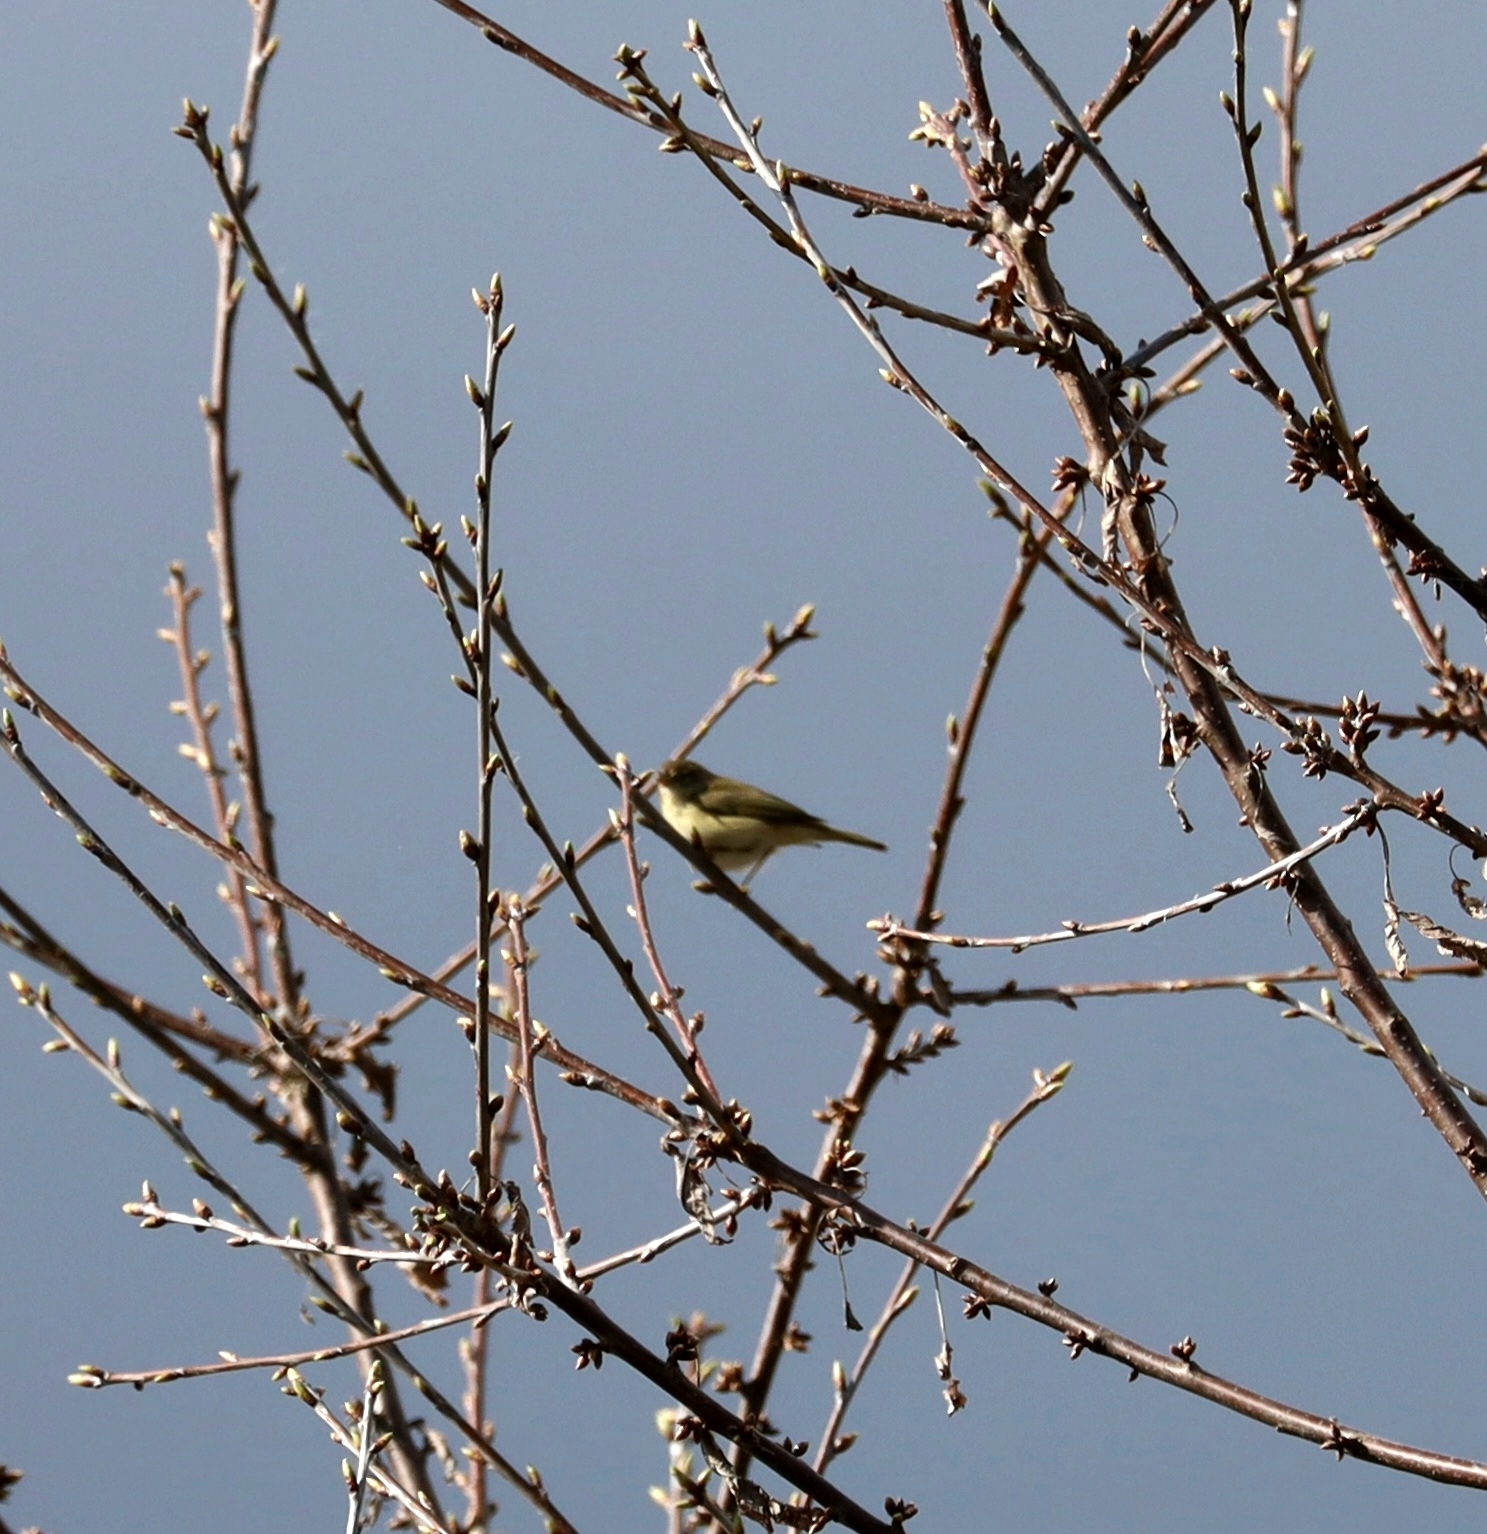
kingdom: Animalia
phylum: Chordata
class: Aves
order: Passeriformes
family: Phylloscopidae
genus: Phylloscopus
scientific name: Phylloscopus collybita
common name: Common chiffchaff
